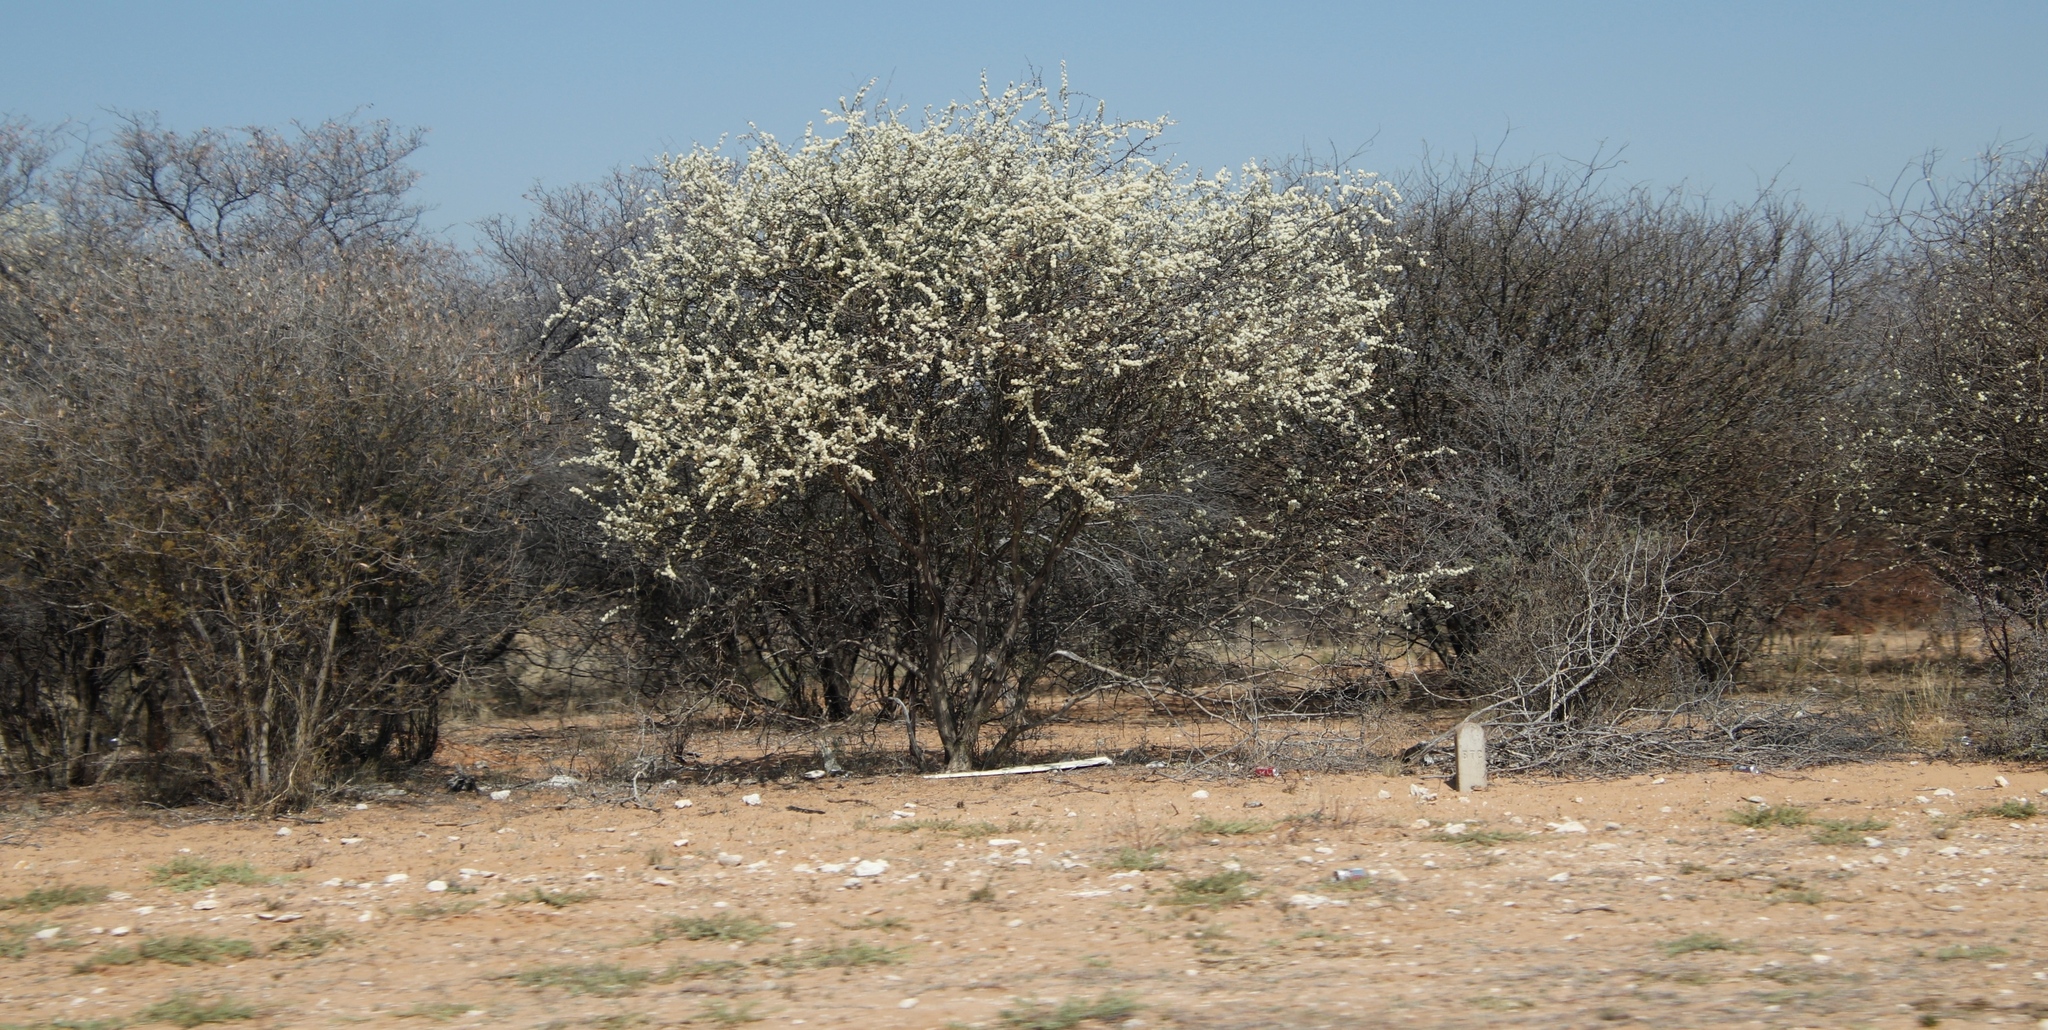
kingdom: Plantae
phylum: Tracheophyta
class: Magnoliopsida
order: Fabales
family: Fabaceae
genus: Senegalia
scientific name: Senegalia mellifera
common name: Hookthorn
